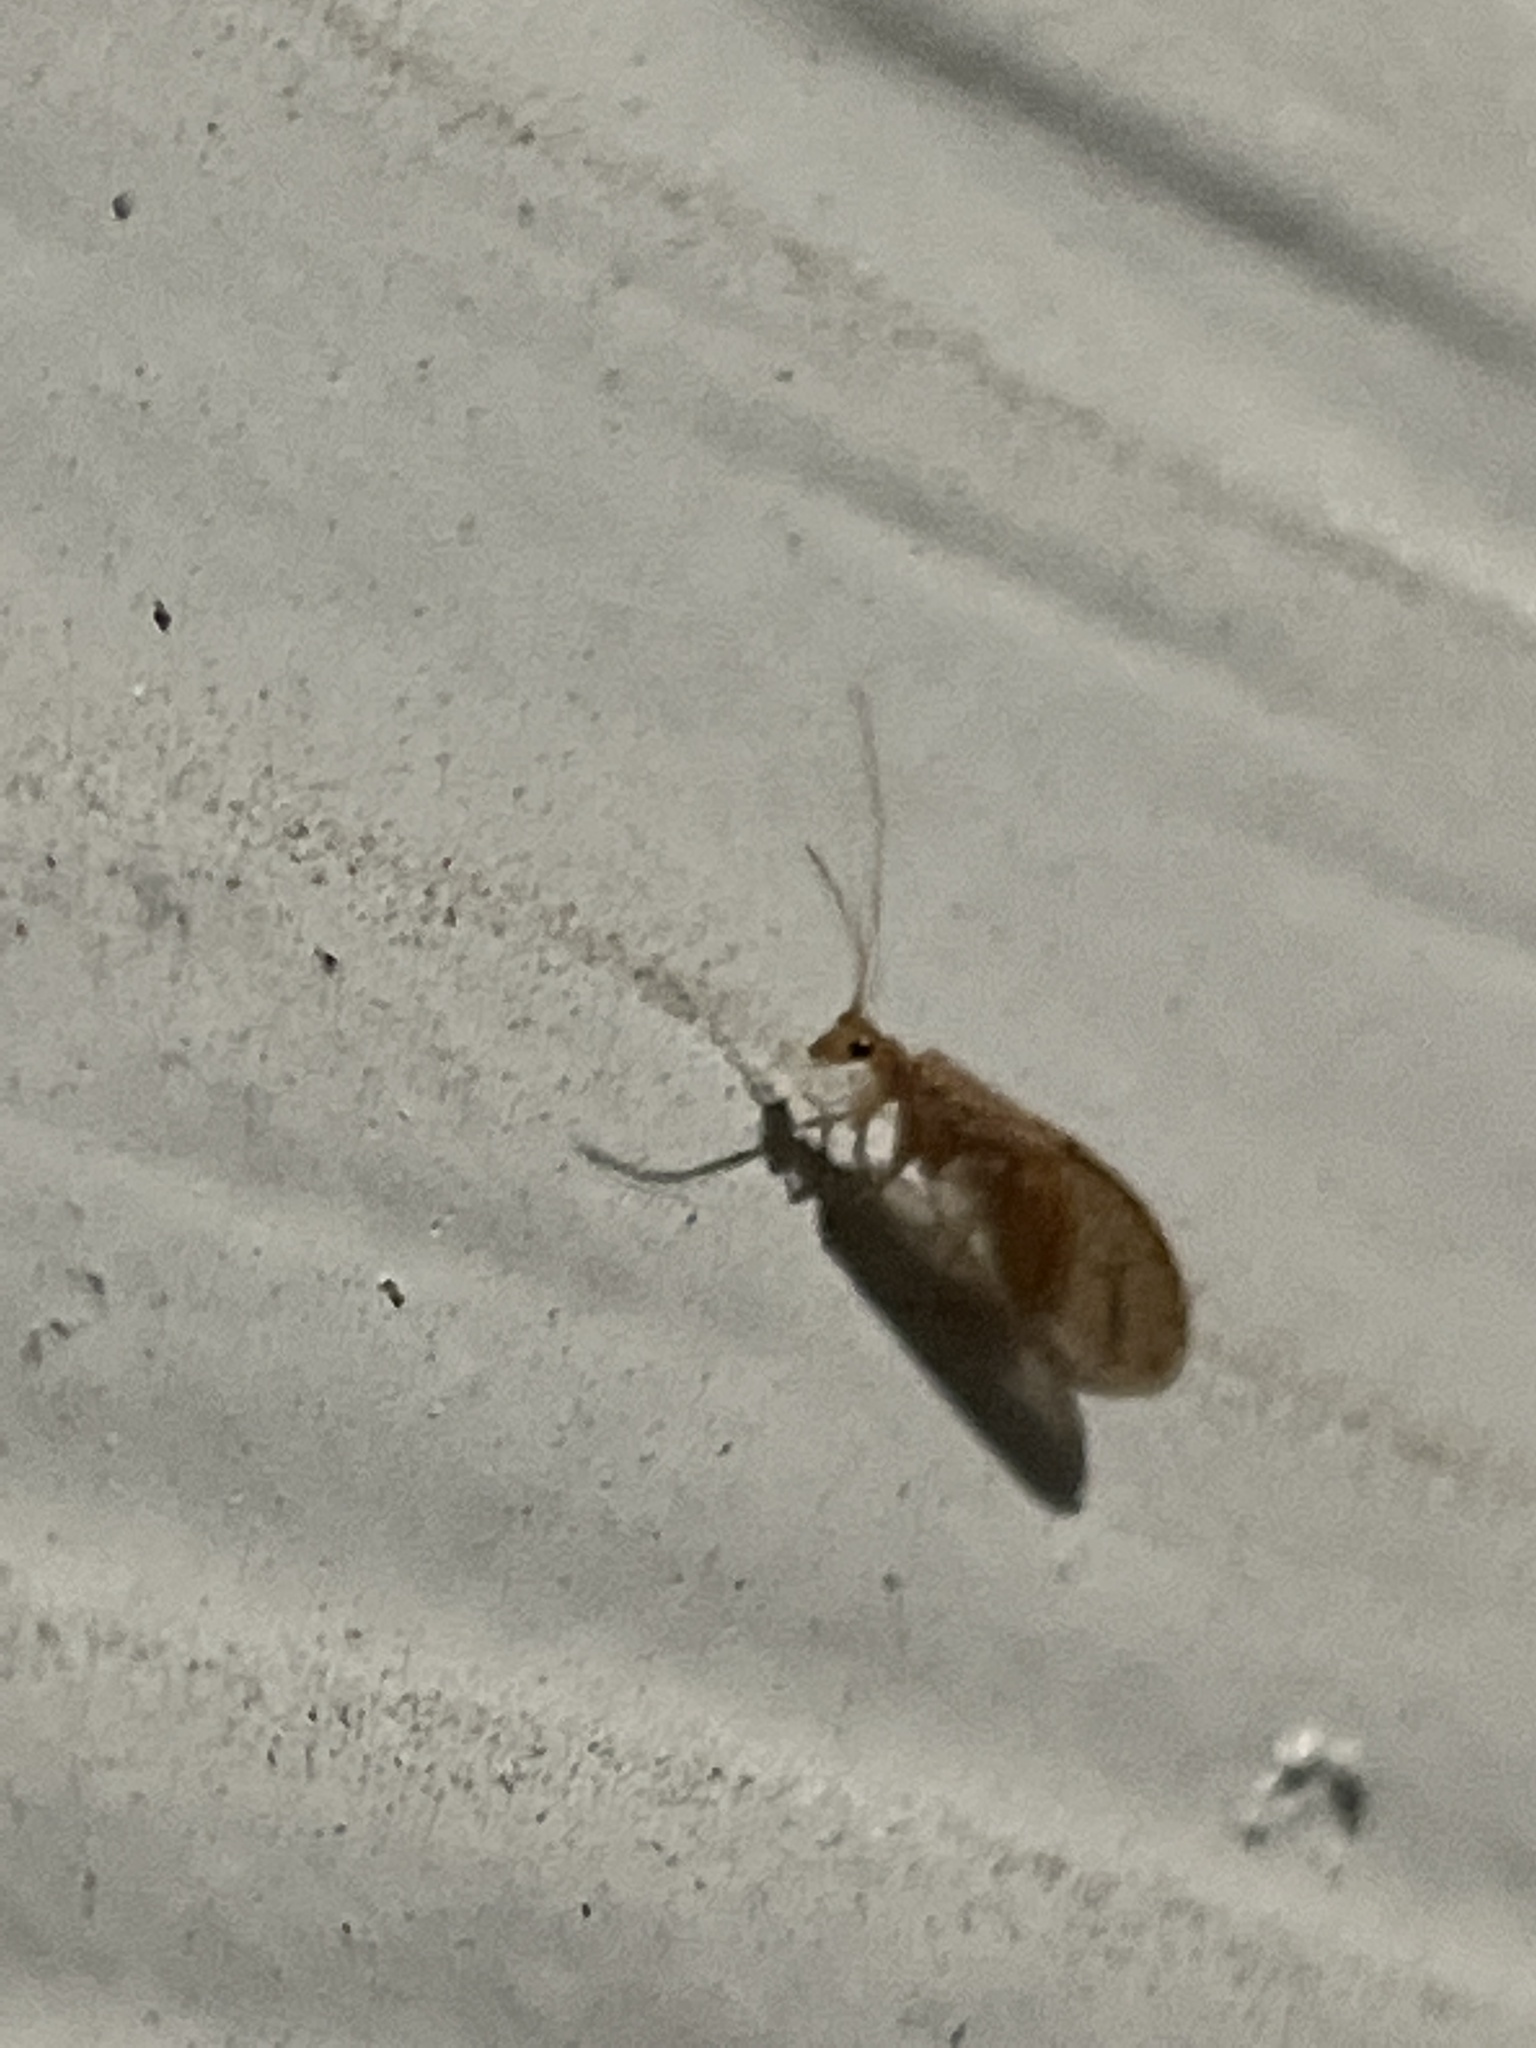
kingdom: Animalia
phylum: Arthropoda
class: Insecta
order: Neuroptera
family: Hemerobiidae
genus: Micromus
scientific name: Micromus posticus
